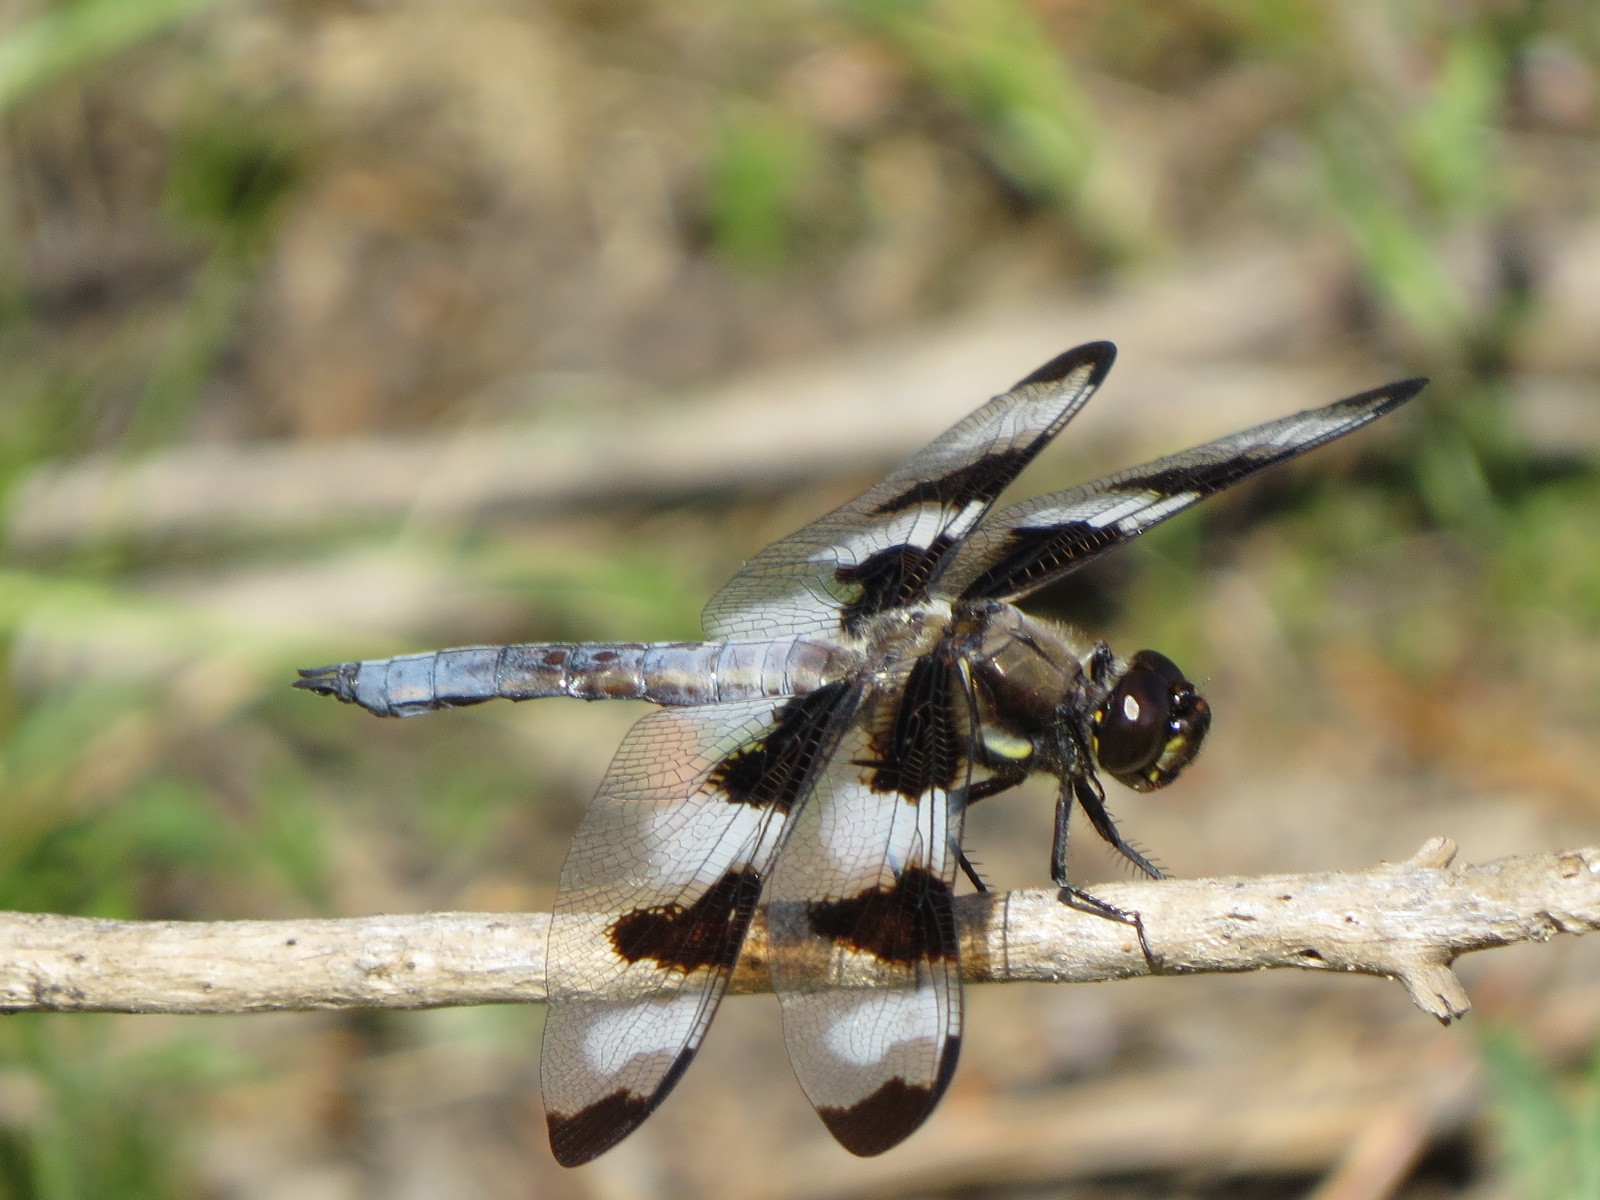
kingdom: Animalia
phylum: Arthropoda
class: Insecta
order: Odonata
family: Libellulidae
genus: Libellula
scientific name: Libellula pulchella
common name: Twelve-spotted skimmer
